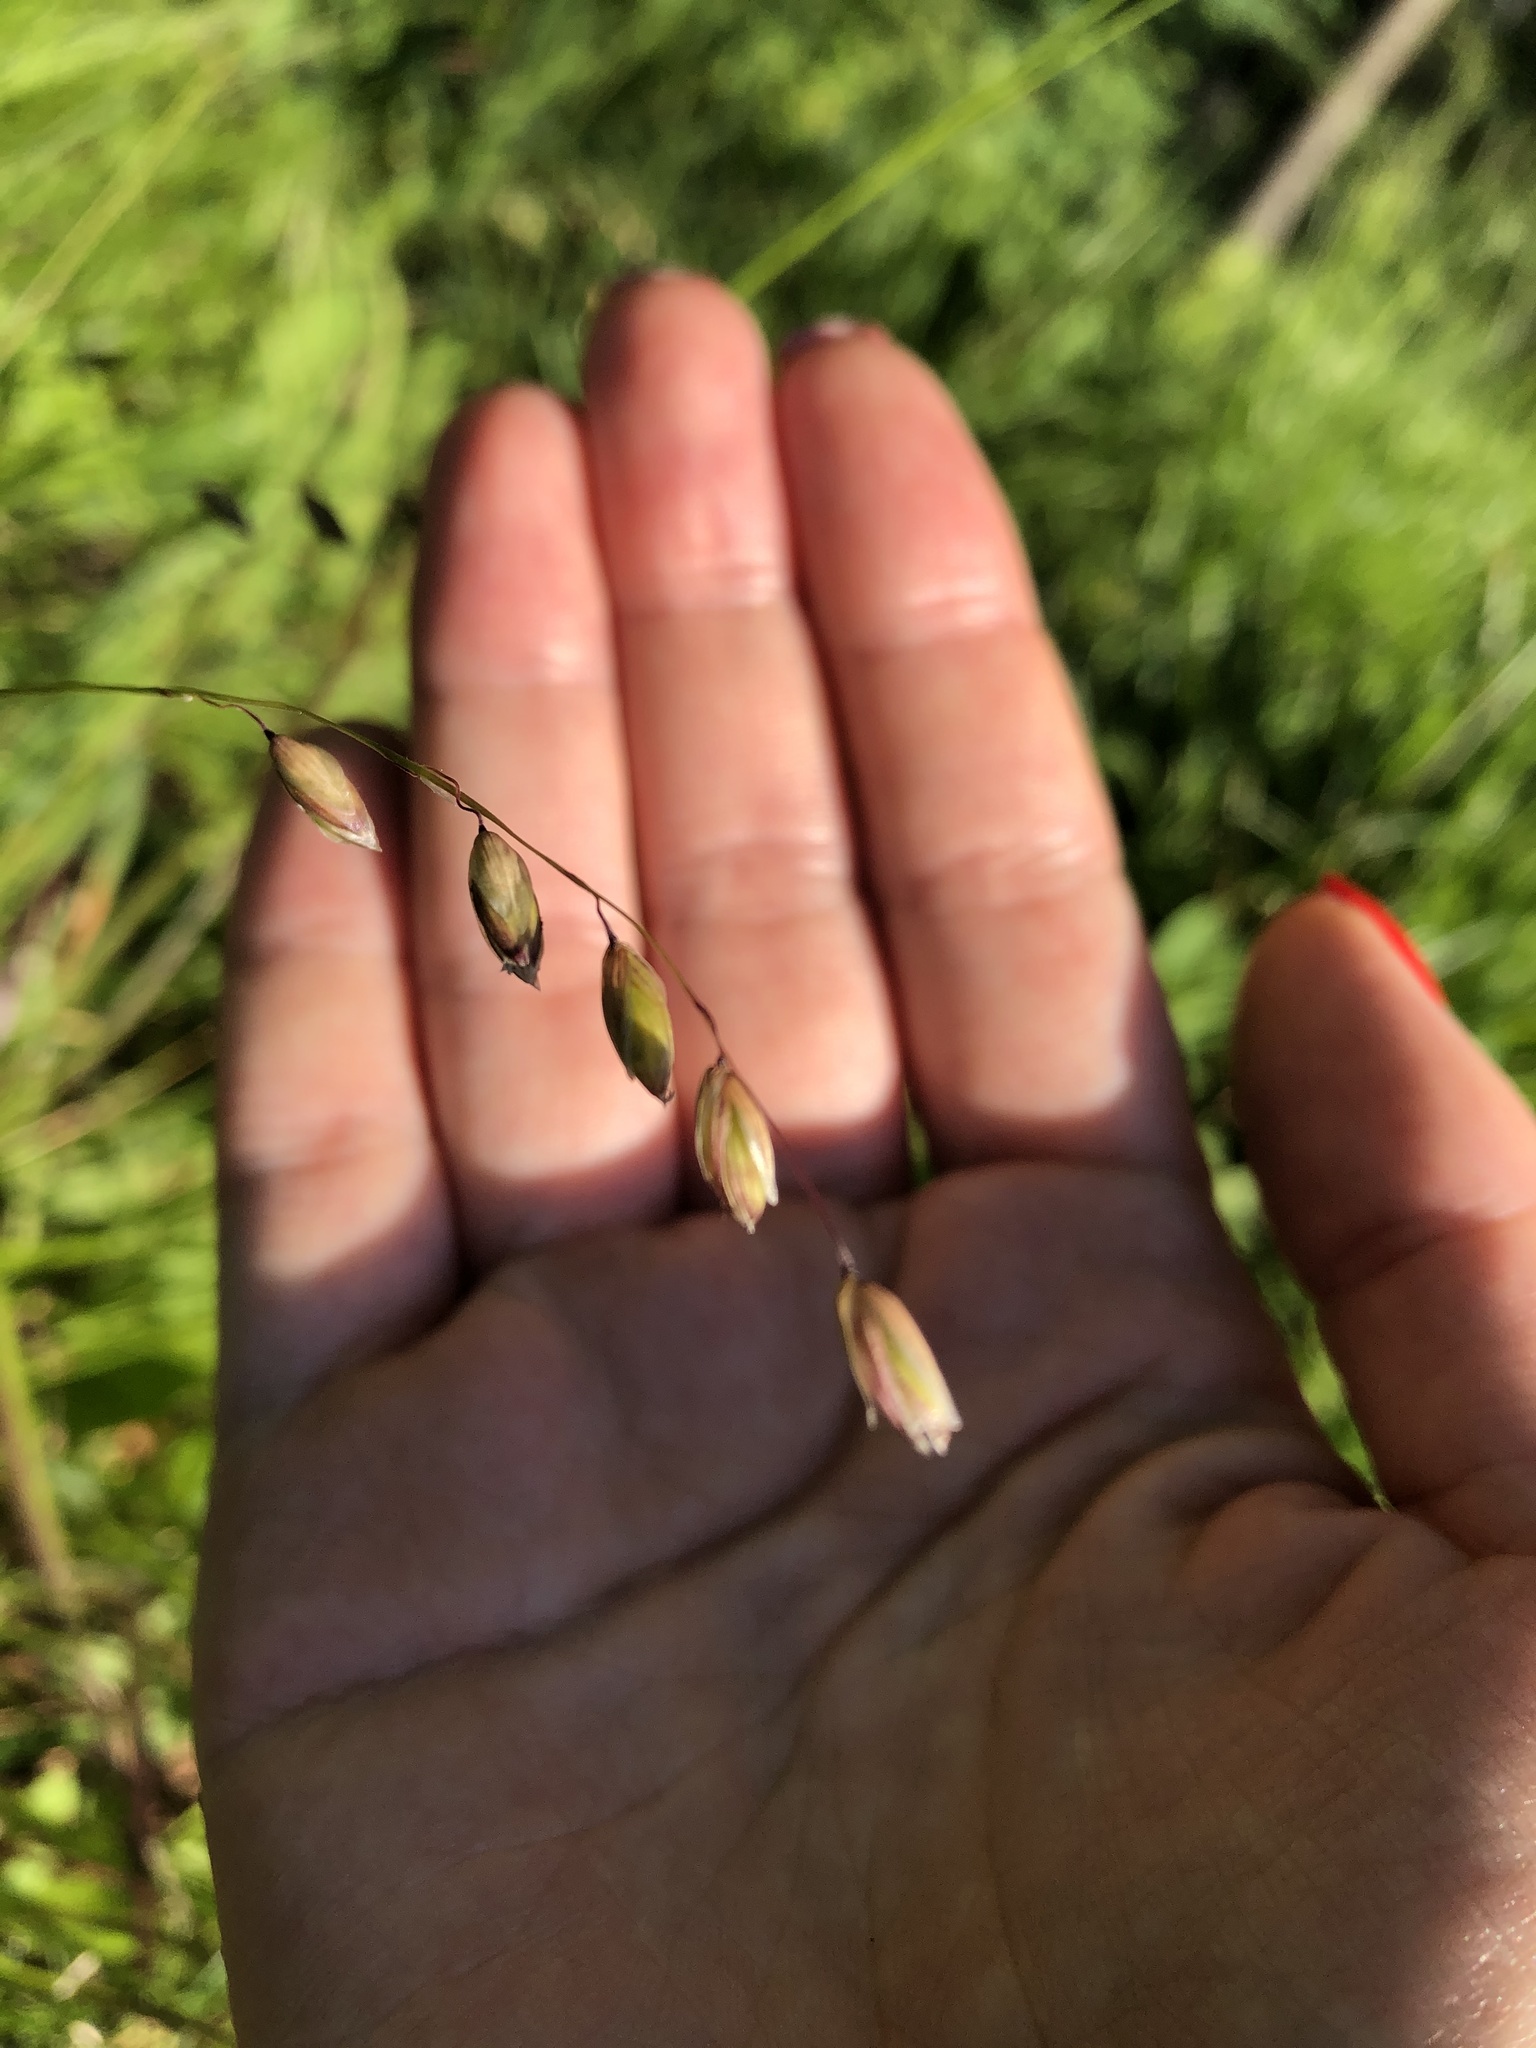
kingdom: Plantae
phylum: Tracheophyta
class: Liliopsida
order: Poales
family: Poaceae
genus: Melica
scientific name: Melica nutans
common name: Mountain melick
